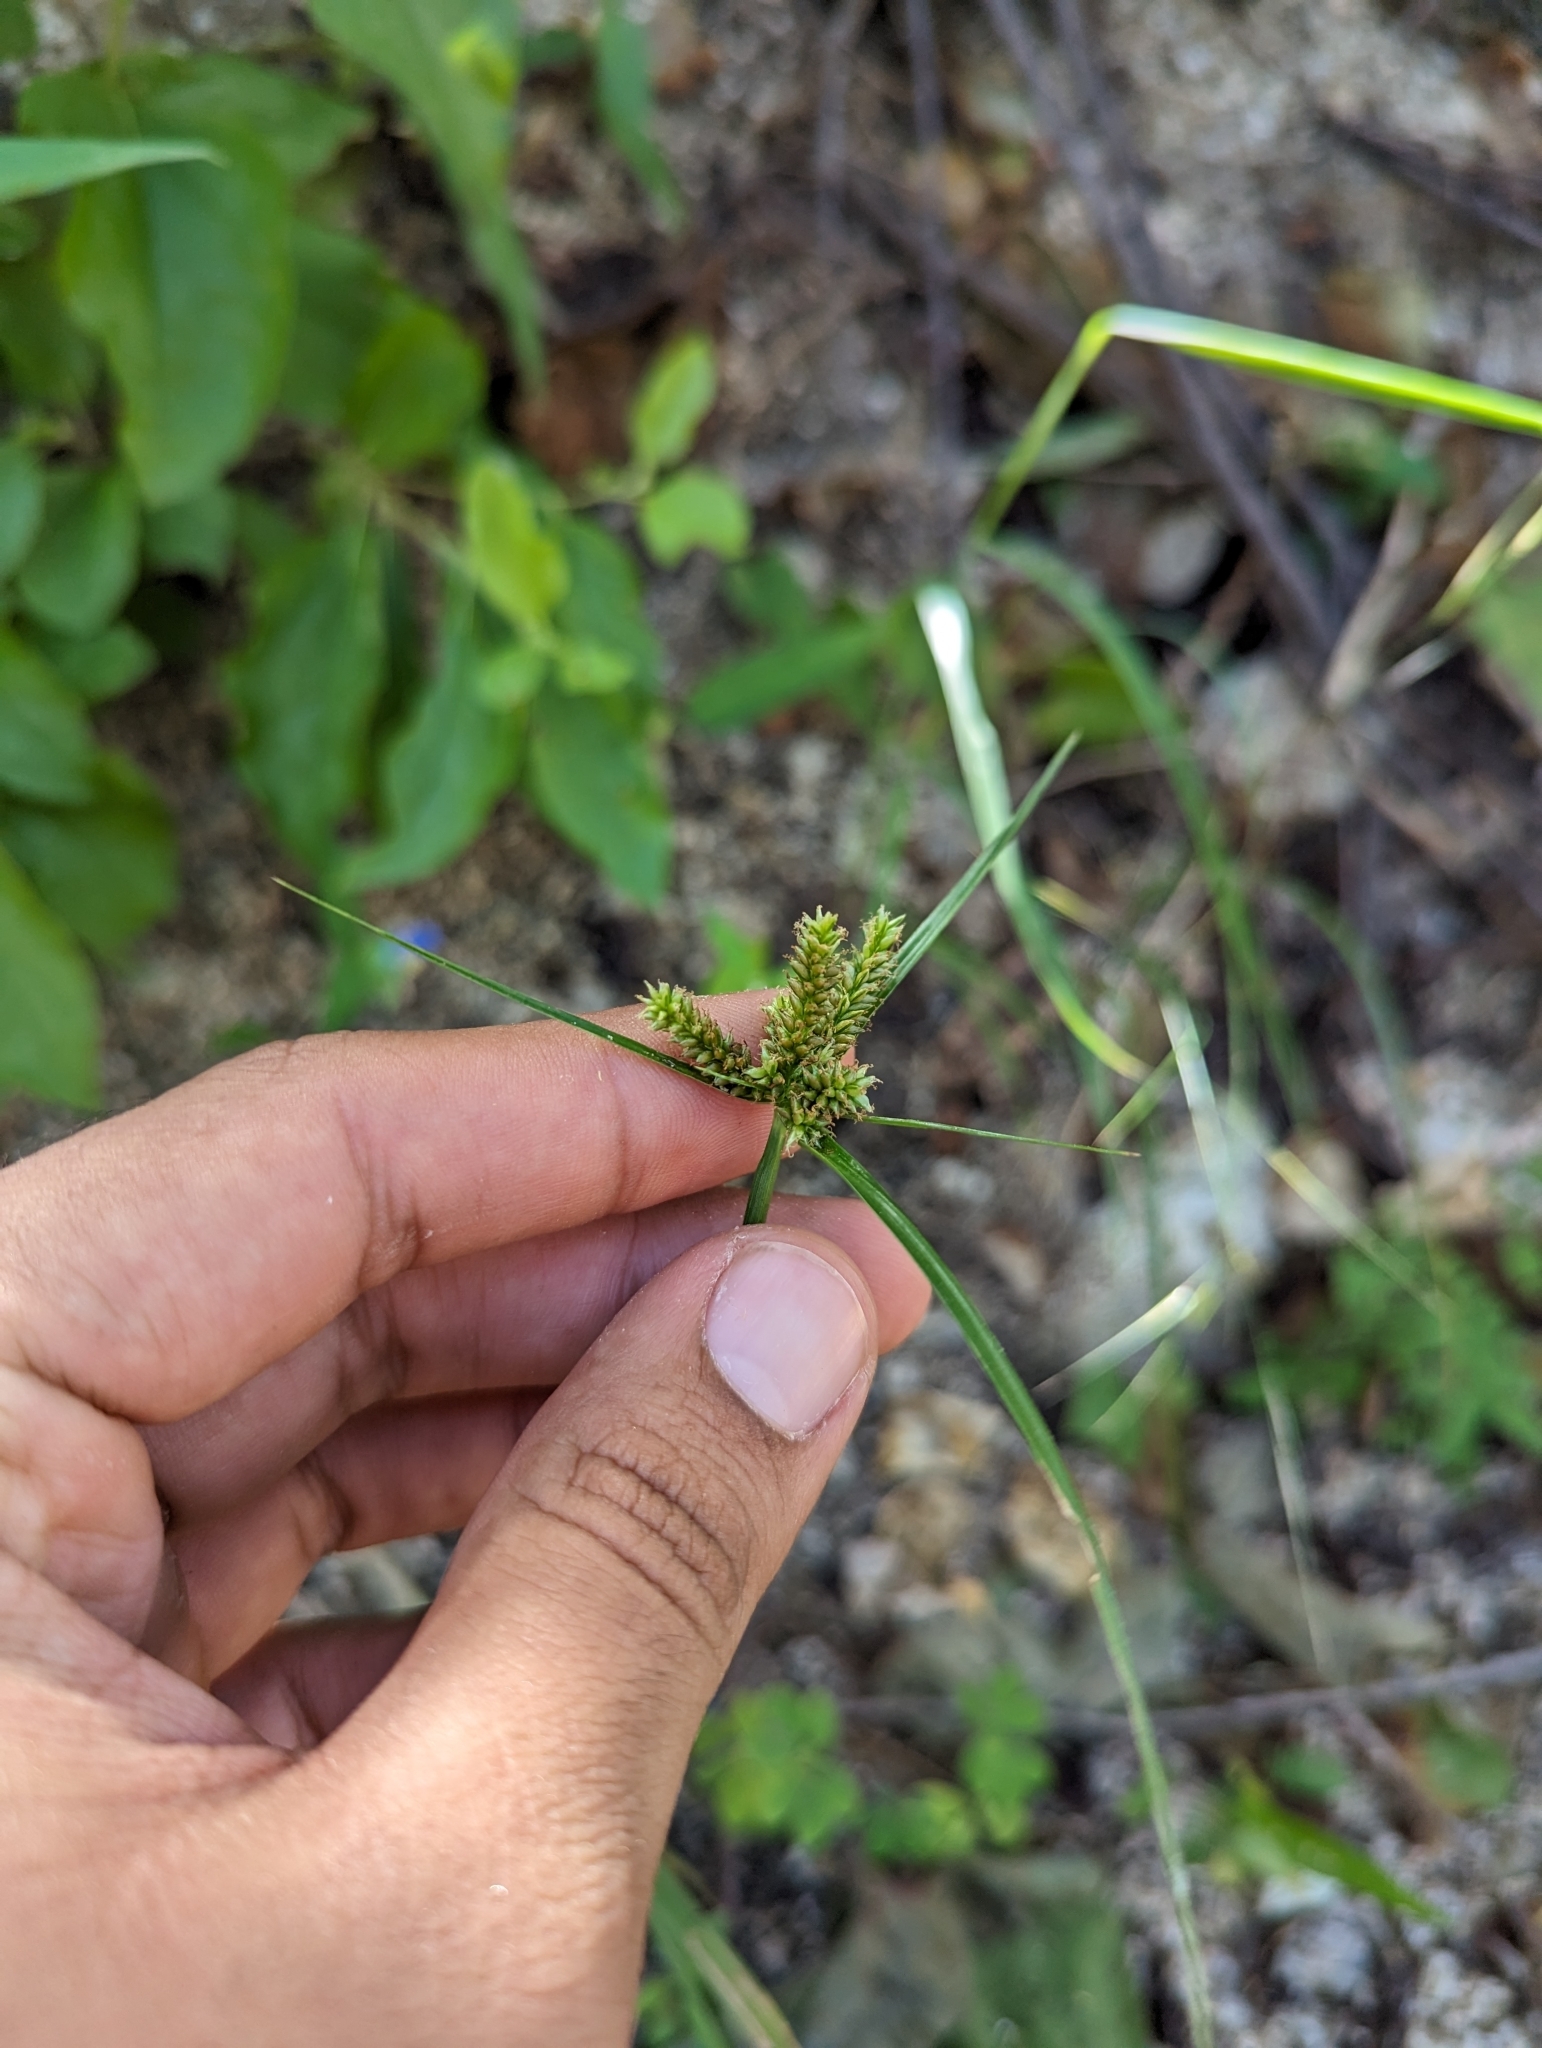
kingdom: Plantae
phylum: Tracheophyta
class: Liliopsida
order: Poales
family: Cyperaceae
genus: Cyperus
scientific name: Cyperus pallidicolor
